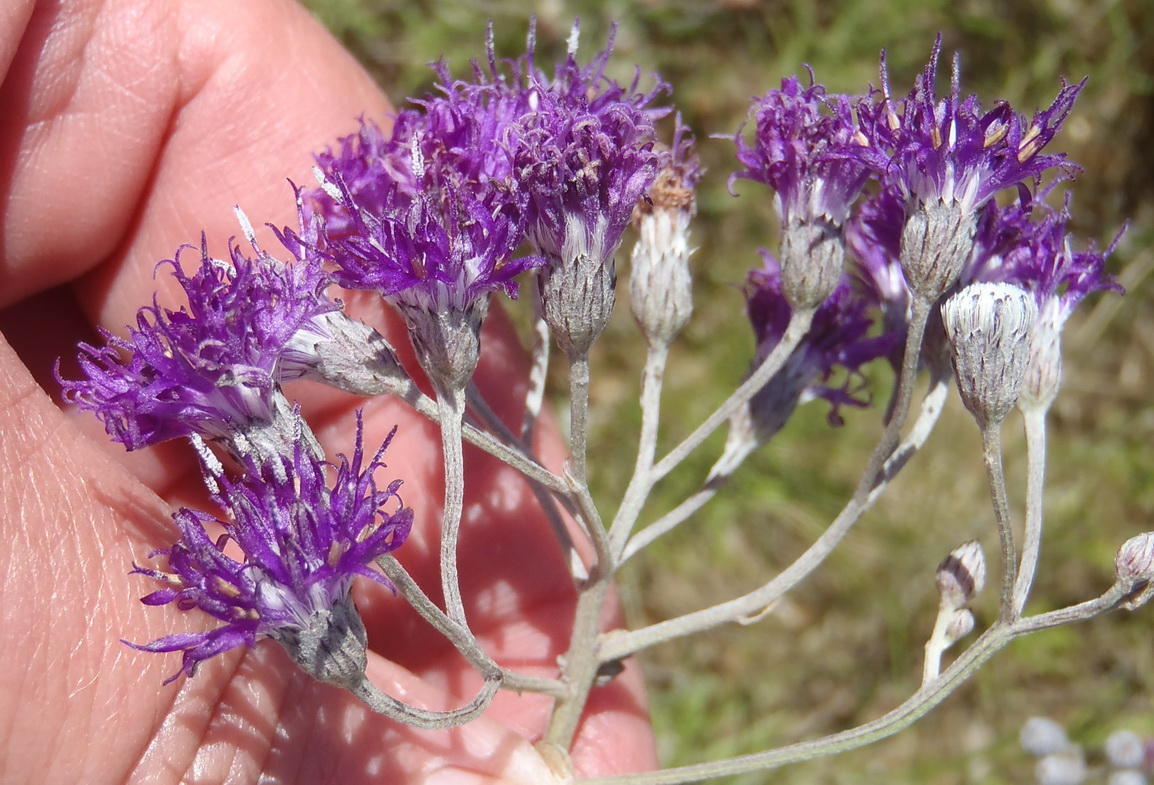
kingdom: Plantae
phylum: Tracheophyta
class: Magnoliopsida
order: Asterales
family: Asteraceae
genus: Hilliardiella
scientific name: Hilliardiella capensis
